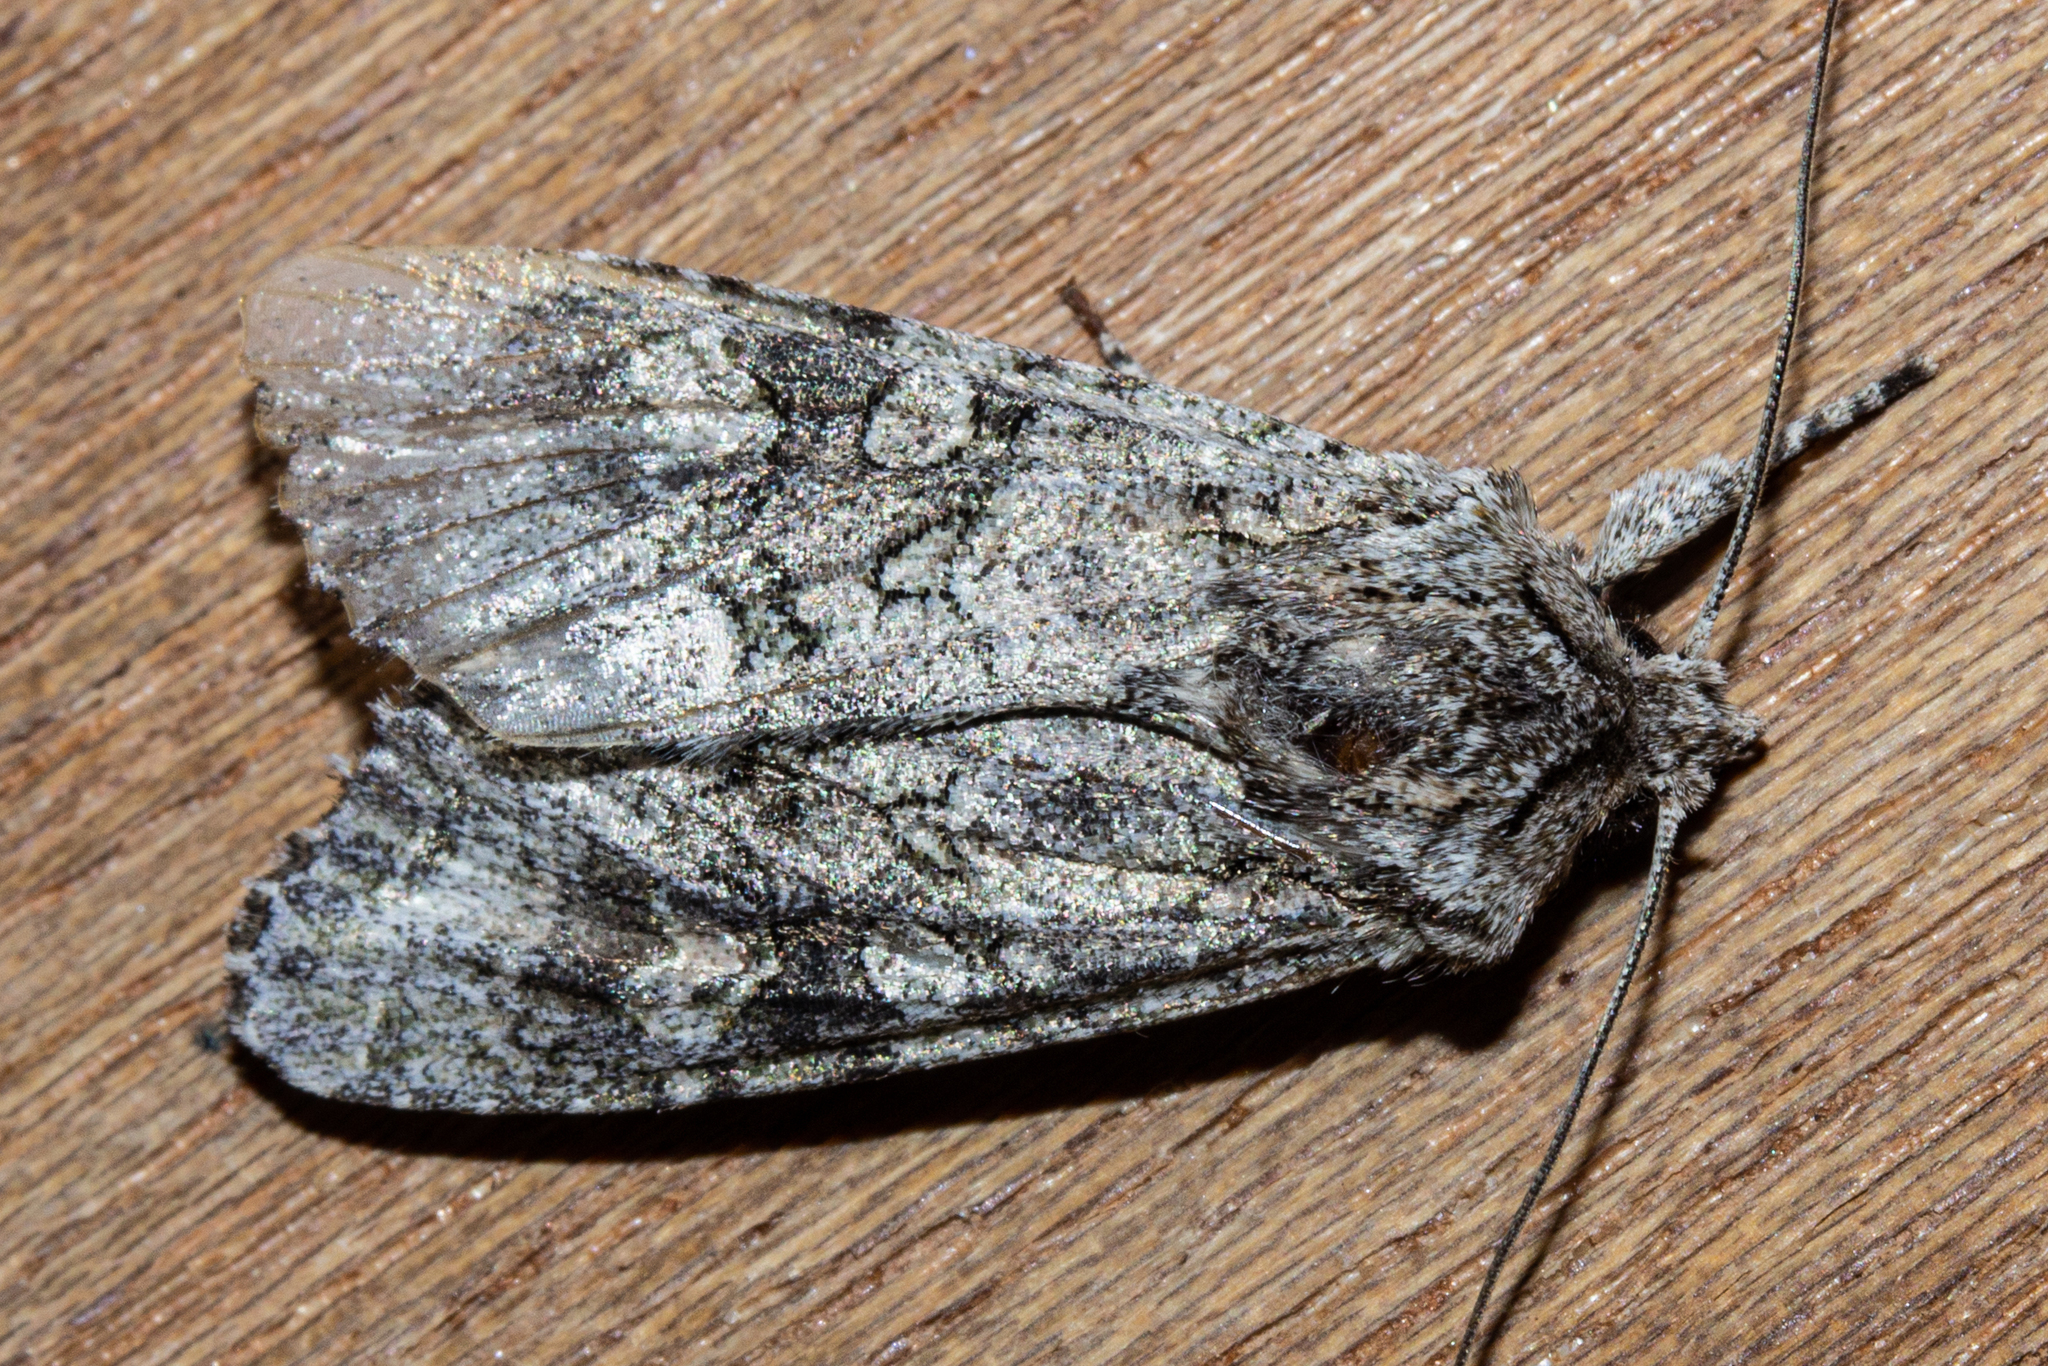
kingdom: Animalia
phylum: Arthropoda
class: Insecta
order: Lepidoptera
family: Noctuidae
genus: Ichneutica
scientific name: Ichneutica mutans
